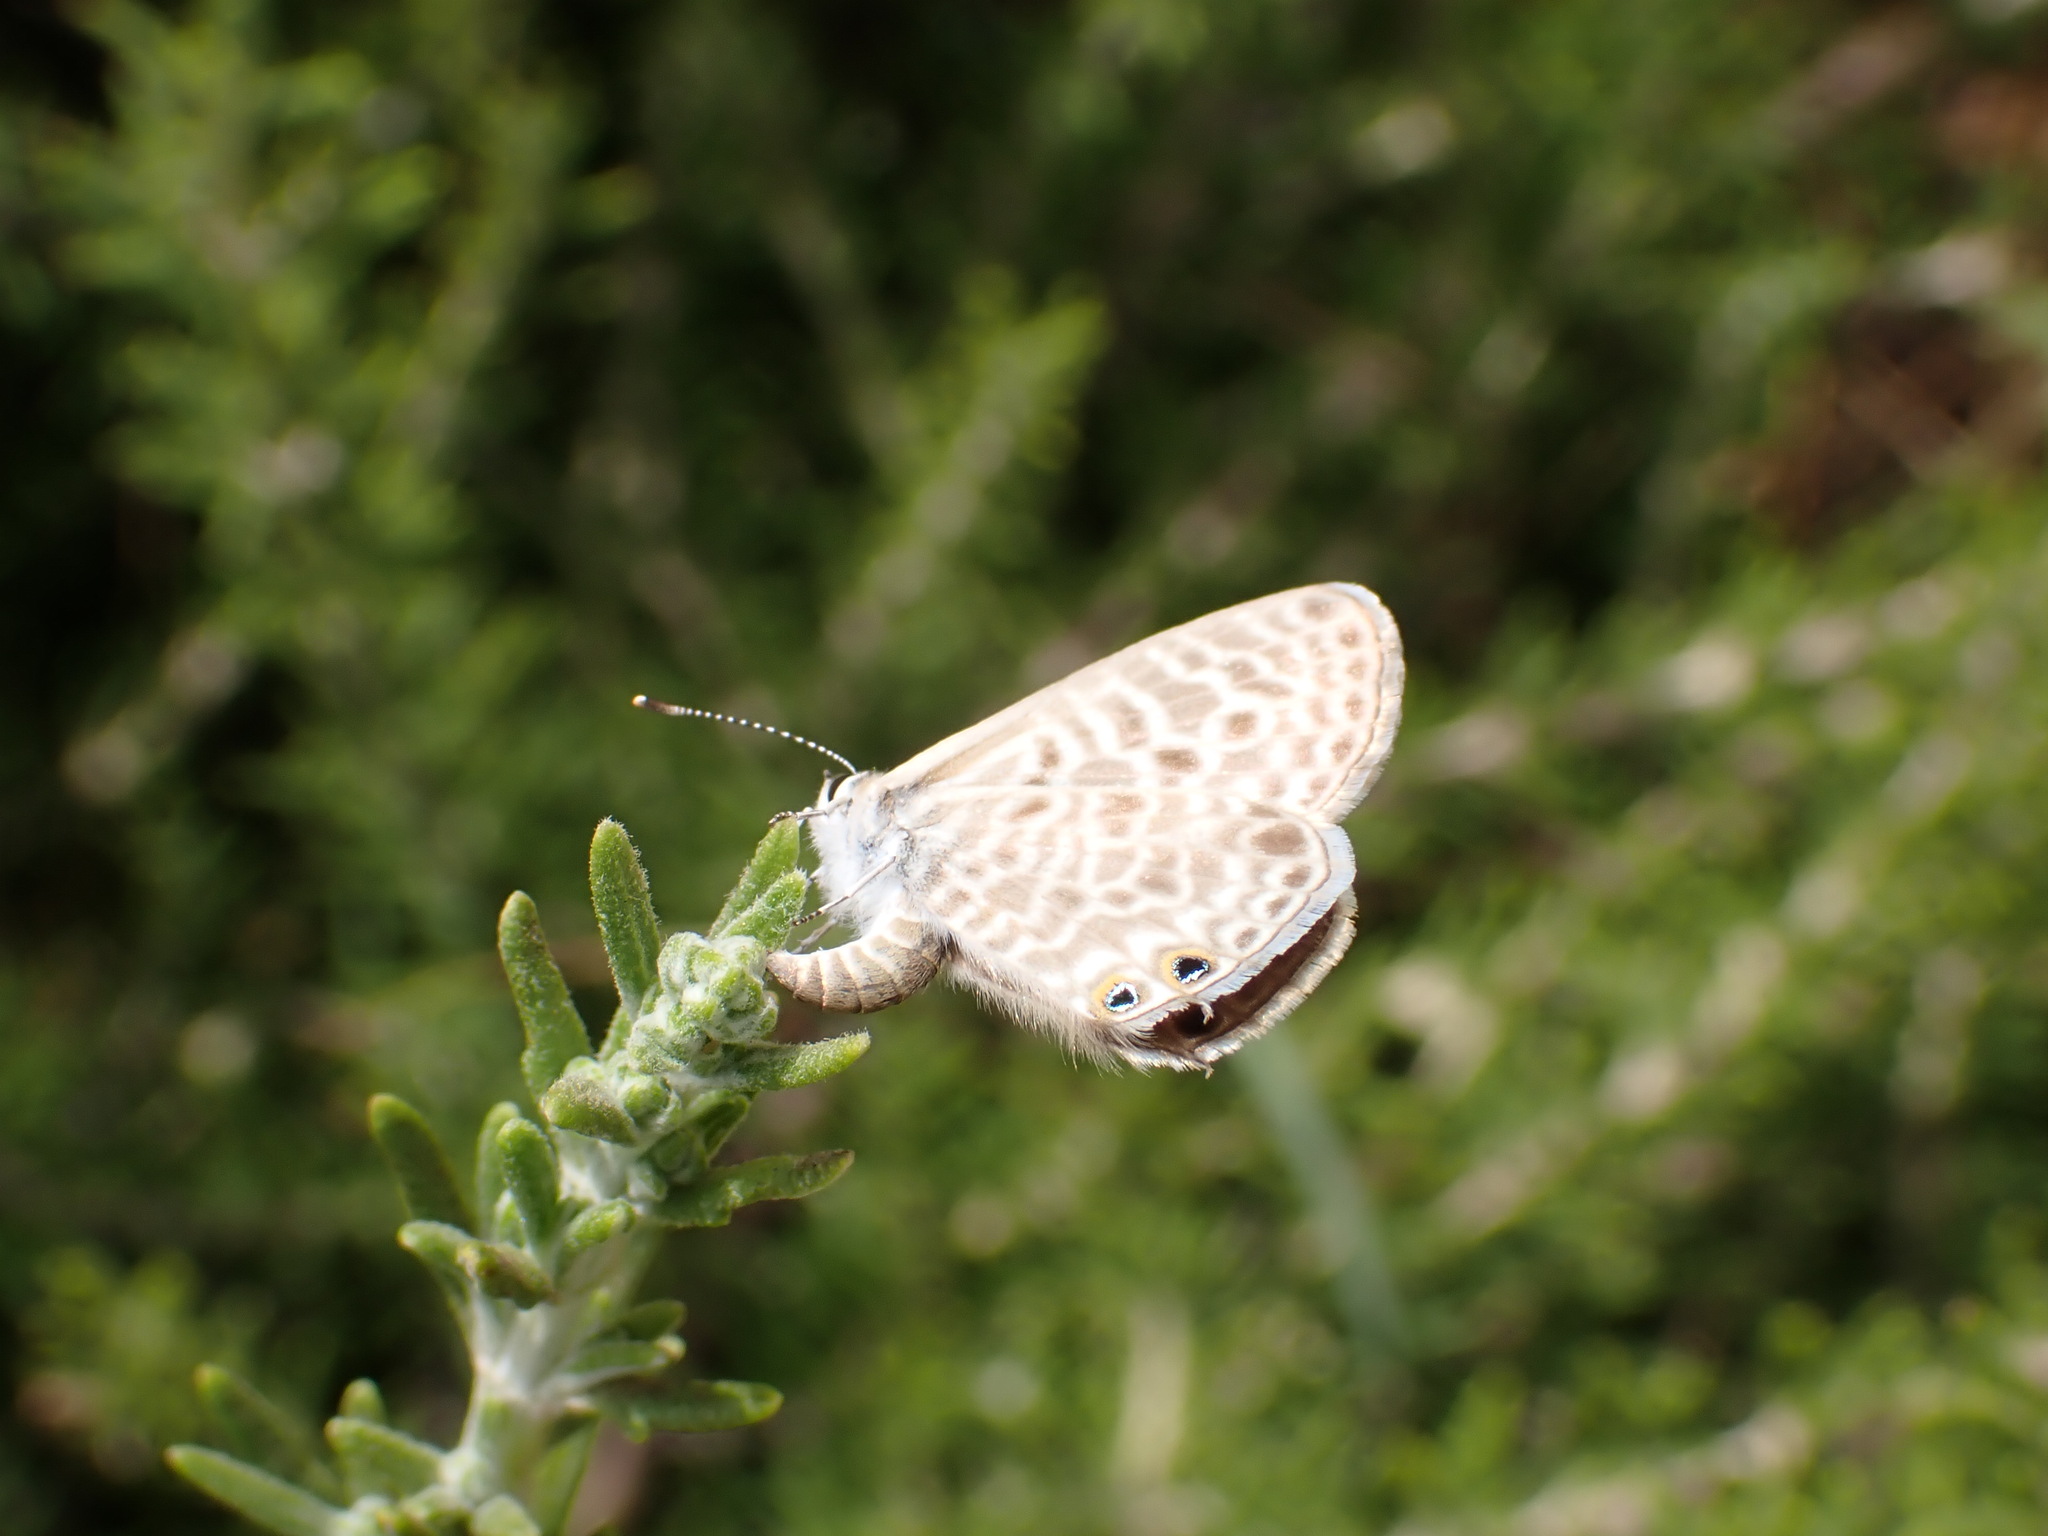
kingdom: Animalia
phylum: Arthropoda
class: Insecta
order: Lepidoptera
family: Lycaenidae
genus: Leptotes
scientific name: Leptotes pirithous
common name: Lang's short-tailed blue
